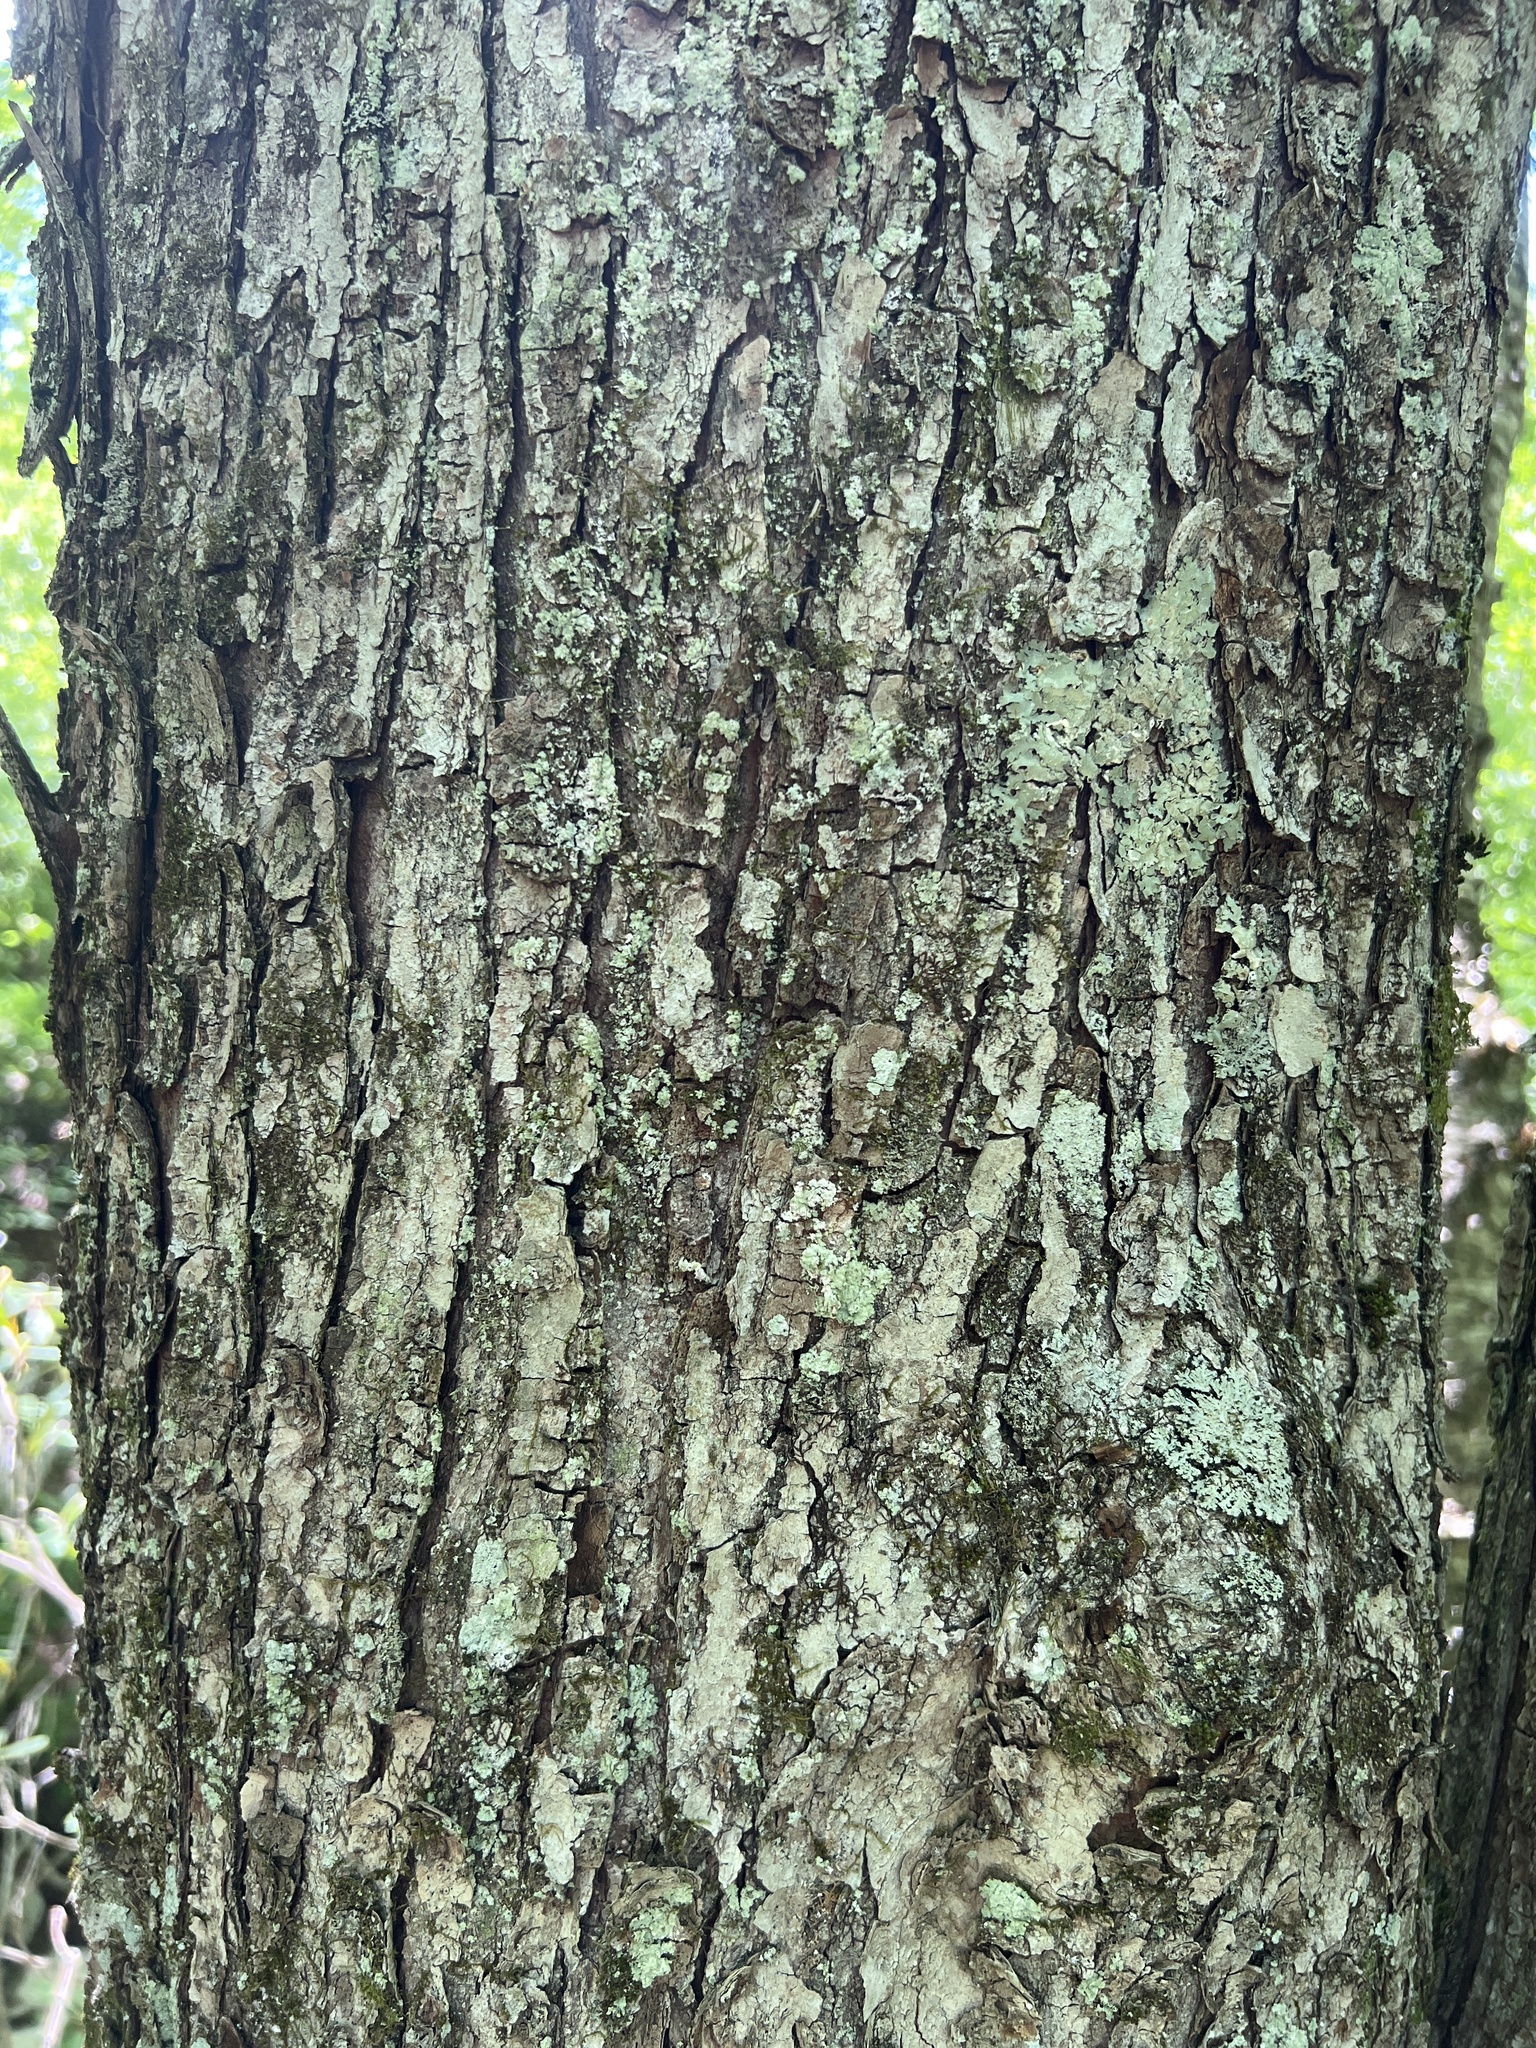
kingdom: Plantae
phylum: Tracheophyta
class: Magnoliopsida
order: Sapindales
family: Sapindaceae
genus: Acer
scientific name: Acer rubrum
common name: Red maple
